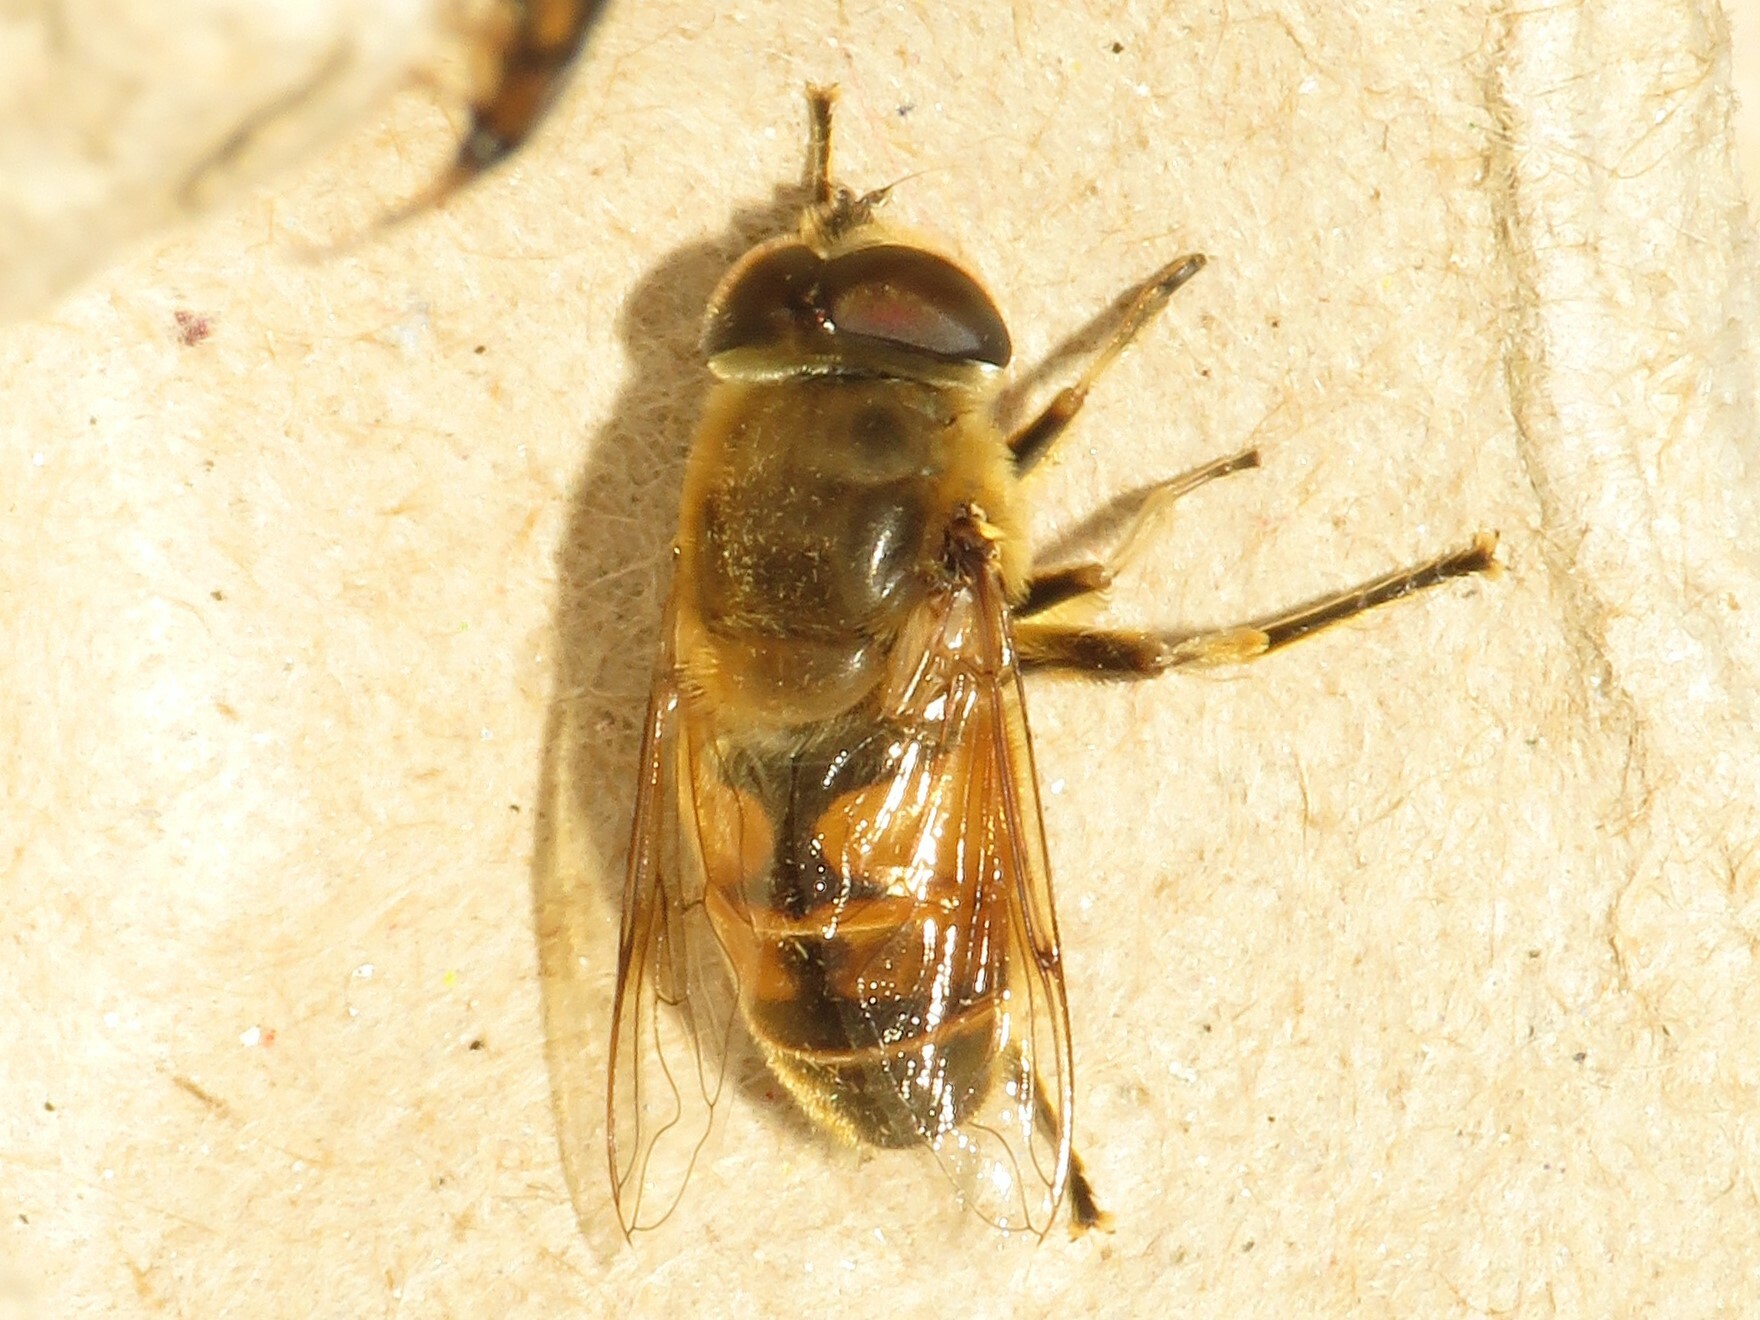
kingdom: Animalia
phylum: Arthropoda
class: Insecta
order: Diptera
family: Syrphidae
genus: Eristalis
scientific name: Eristalis tenax
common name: Drone fly
